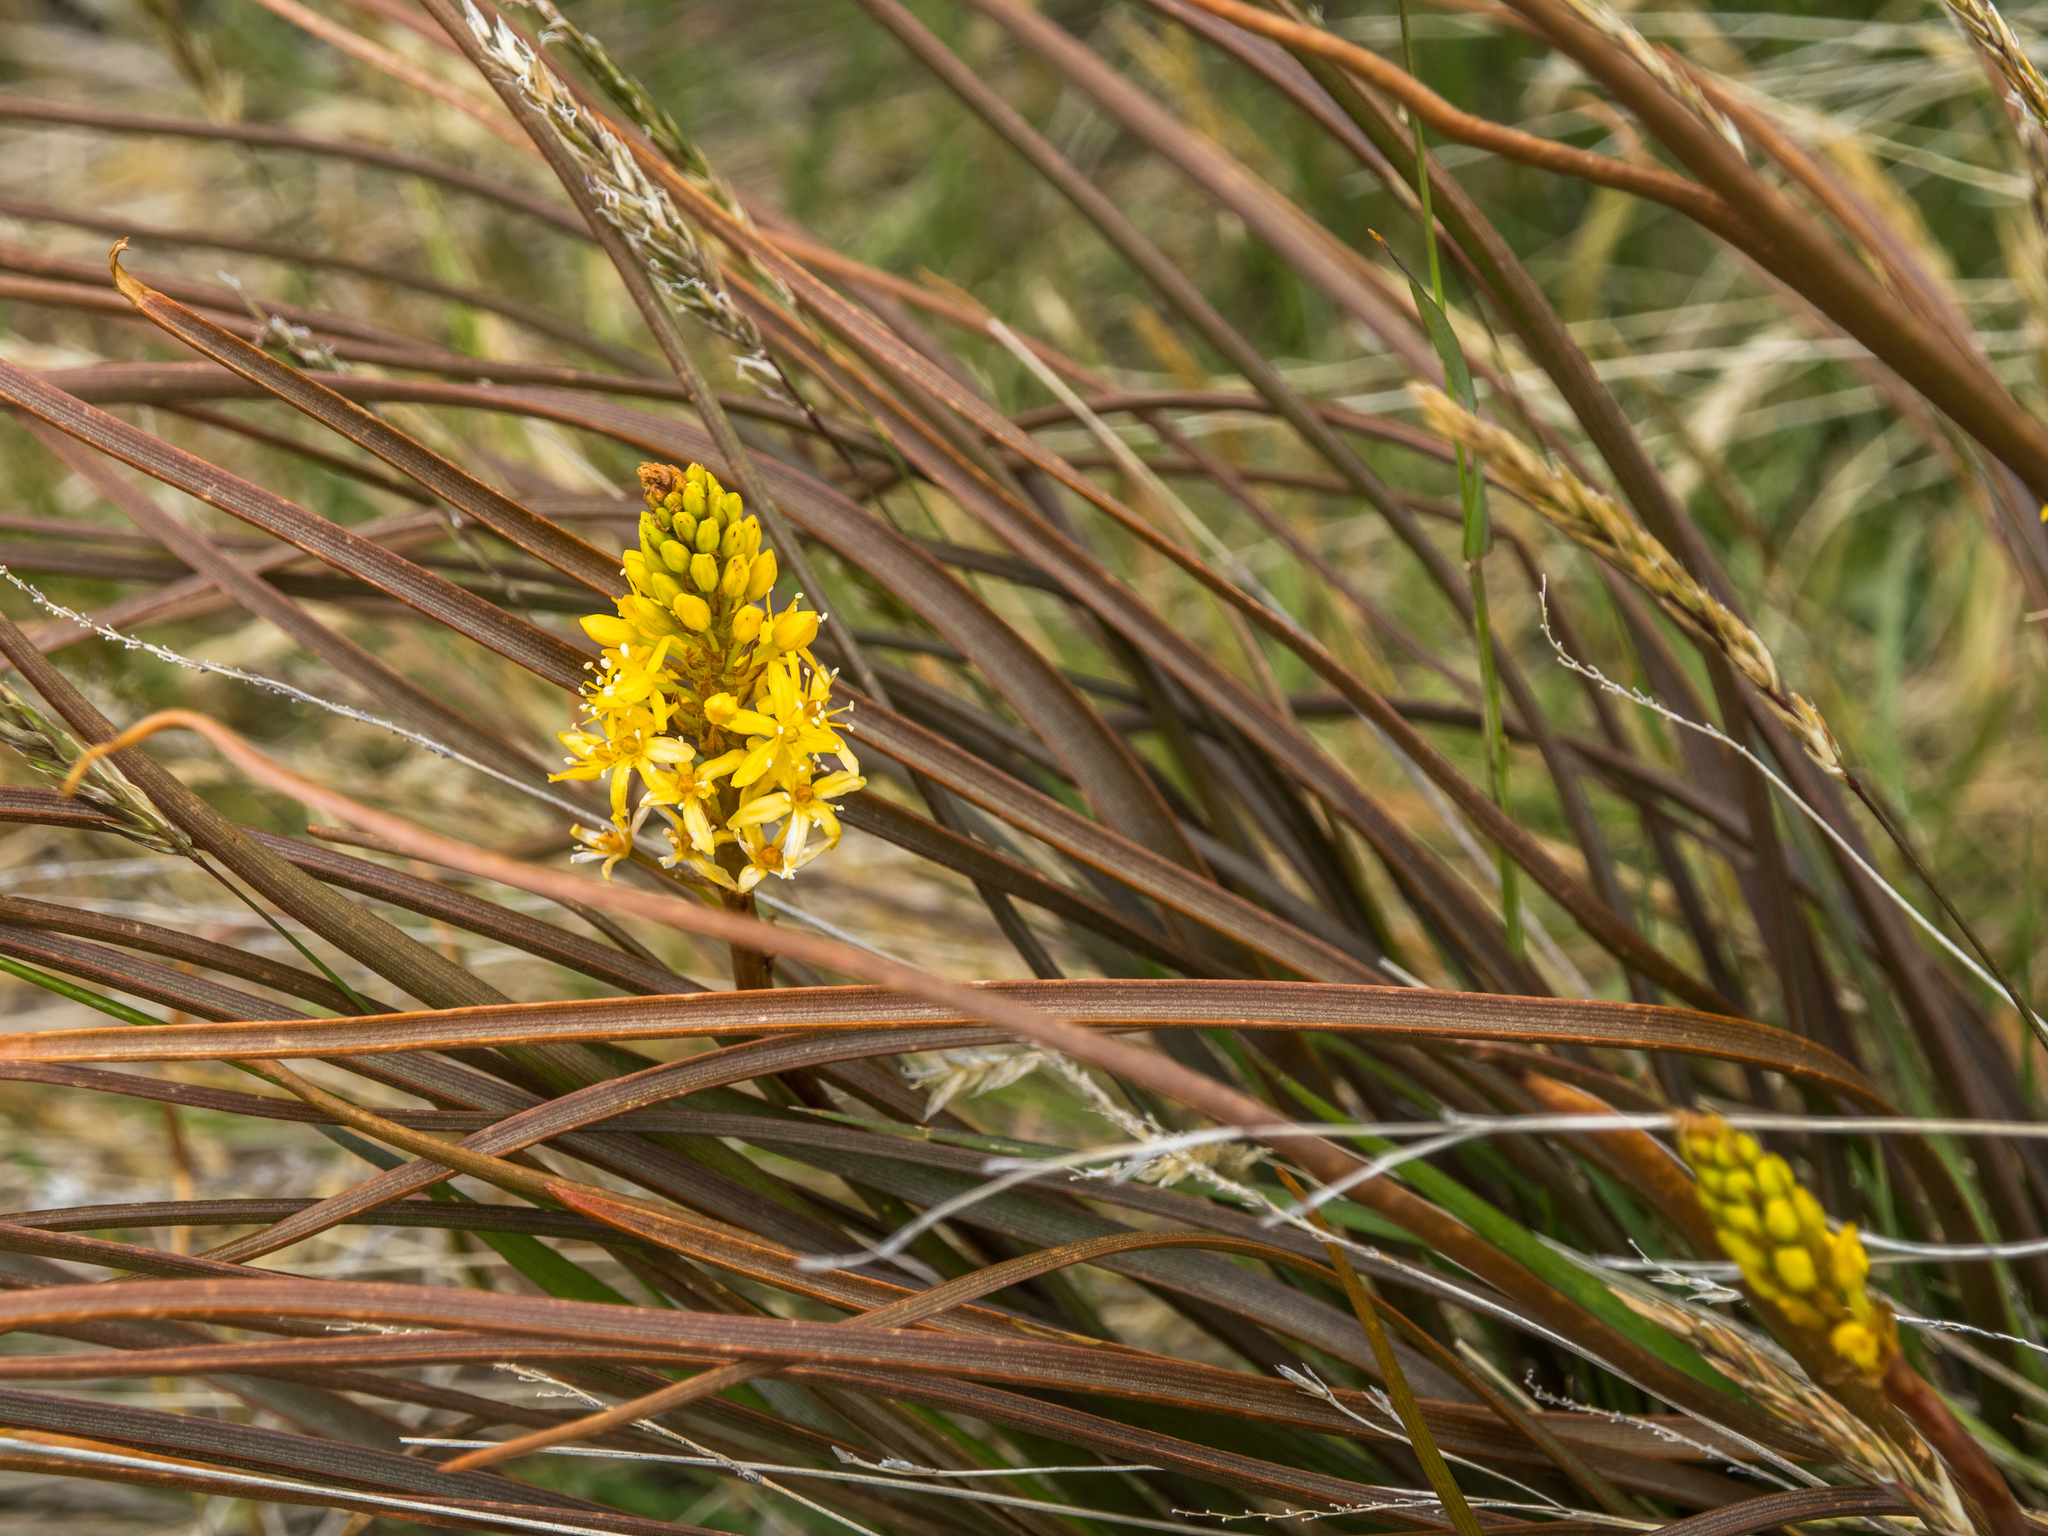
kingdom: Plantae
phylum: Tracheophyta
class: Liliopsida
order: Asparagales
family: Asphodelaceae
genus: Bulbinella
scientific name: Bulbinella angustifolia
